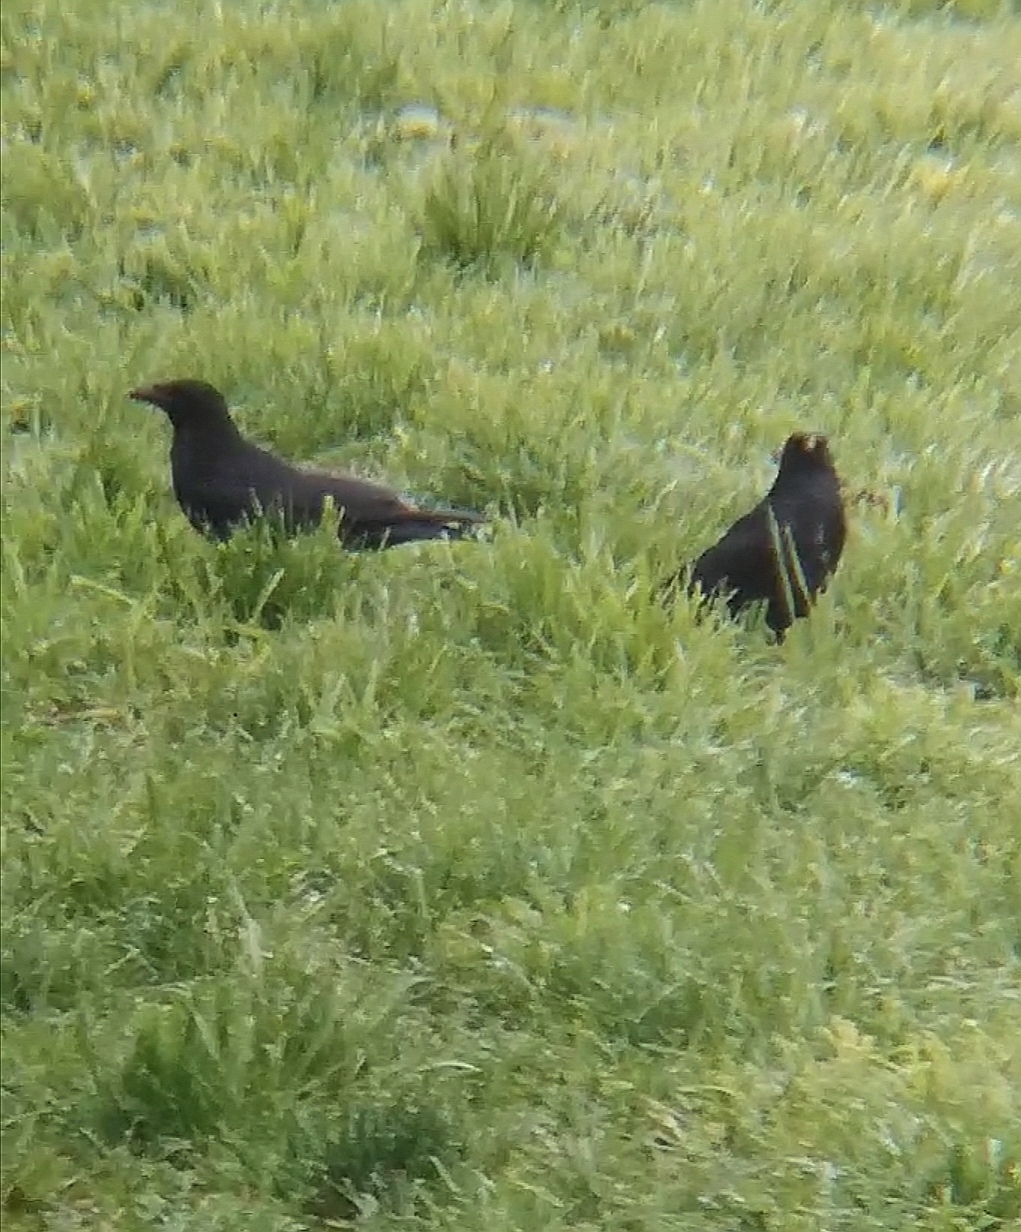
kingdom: Animalia
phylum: Chordata
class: Aves
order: Passeriformes
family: Corvidae
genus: Corvus
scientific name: Corvus corone
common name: Carrion crow
